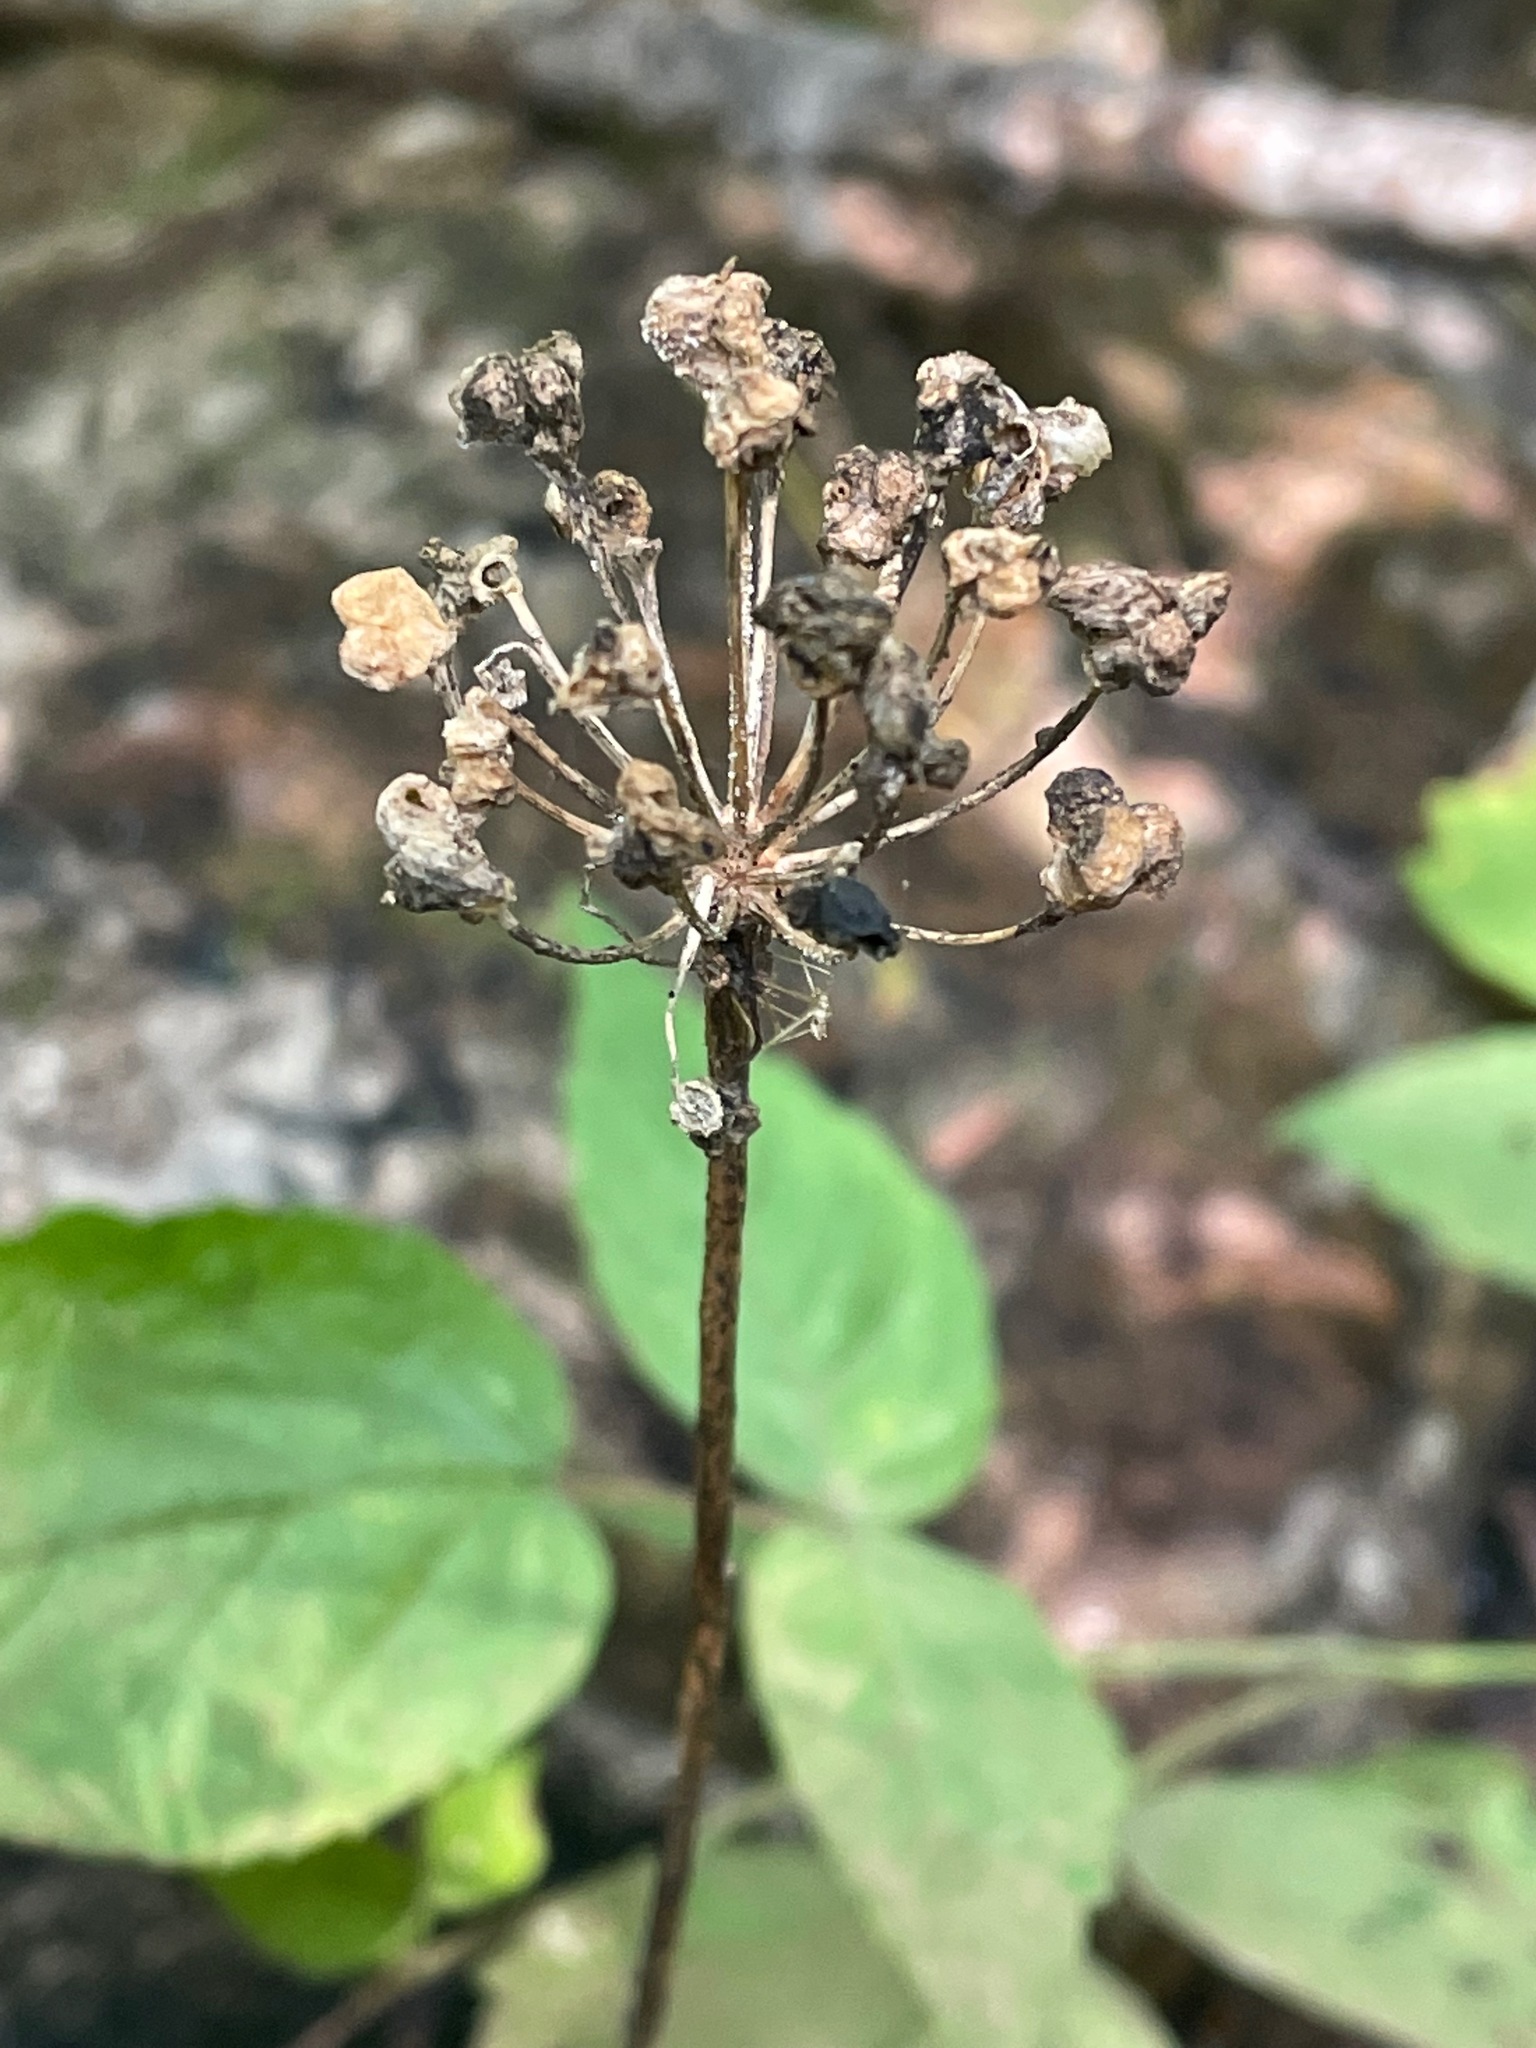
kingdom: Plantae
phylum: Tracheophyta
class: Liliopsida
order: Asparagales
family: Amaryllidaceae
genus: Allium
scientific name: Allium tricoccum
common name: Ramp
